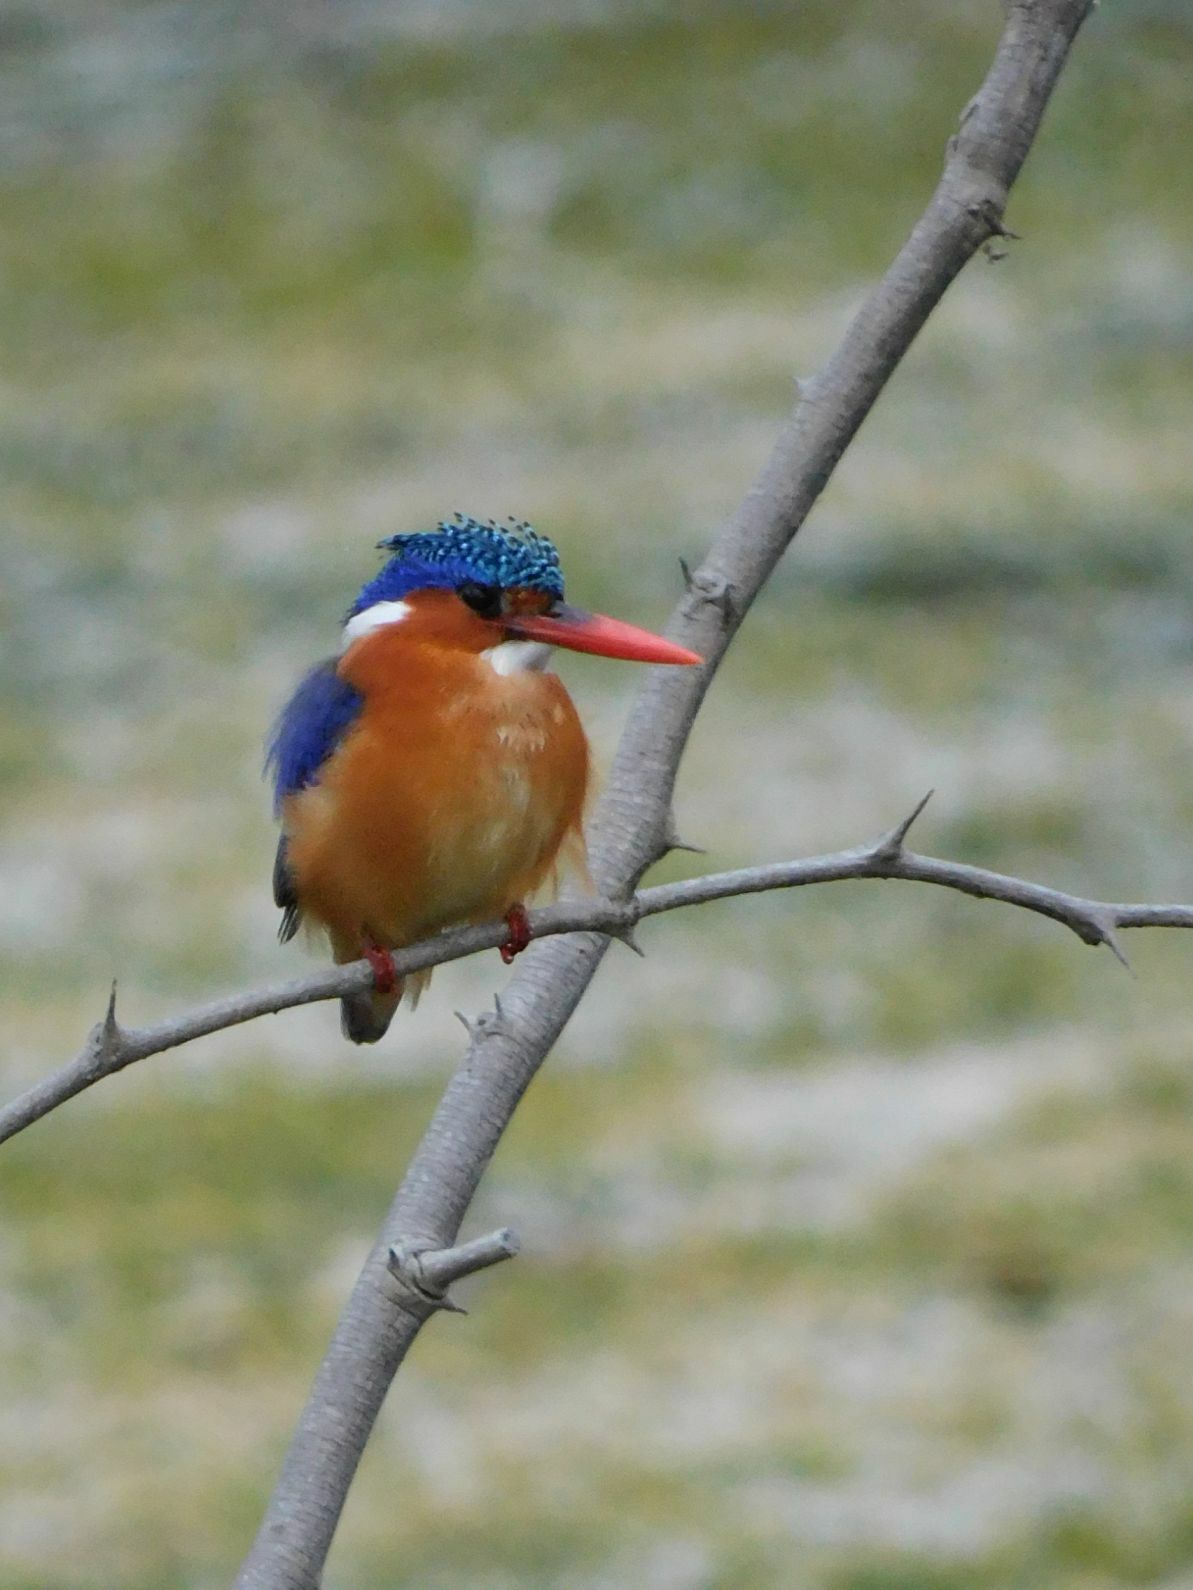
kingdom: Animalia
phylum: Chordata
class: Aves
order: Coraciiformes
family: Alcedinidae
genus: Corythornis
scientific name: Corythornis cristatus
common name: Malachite kingfisher
